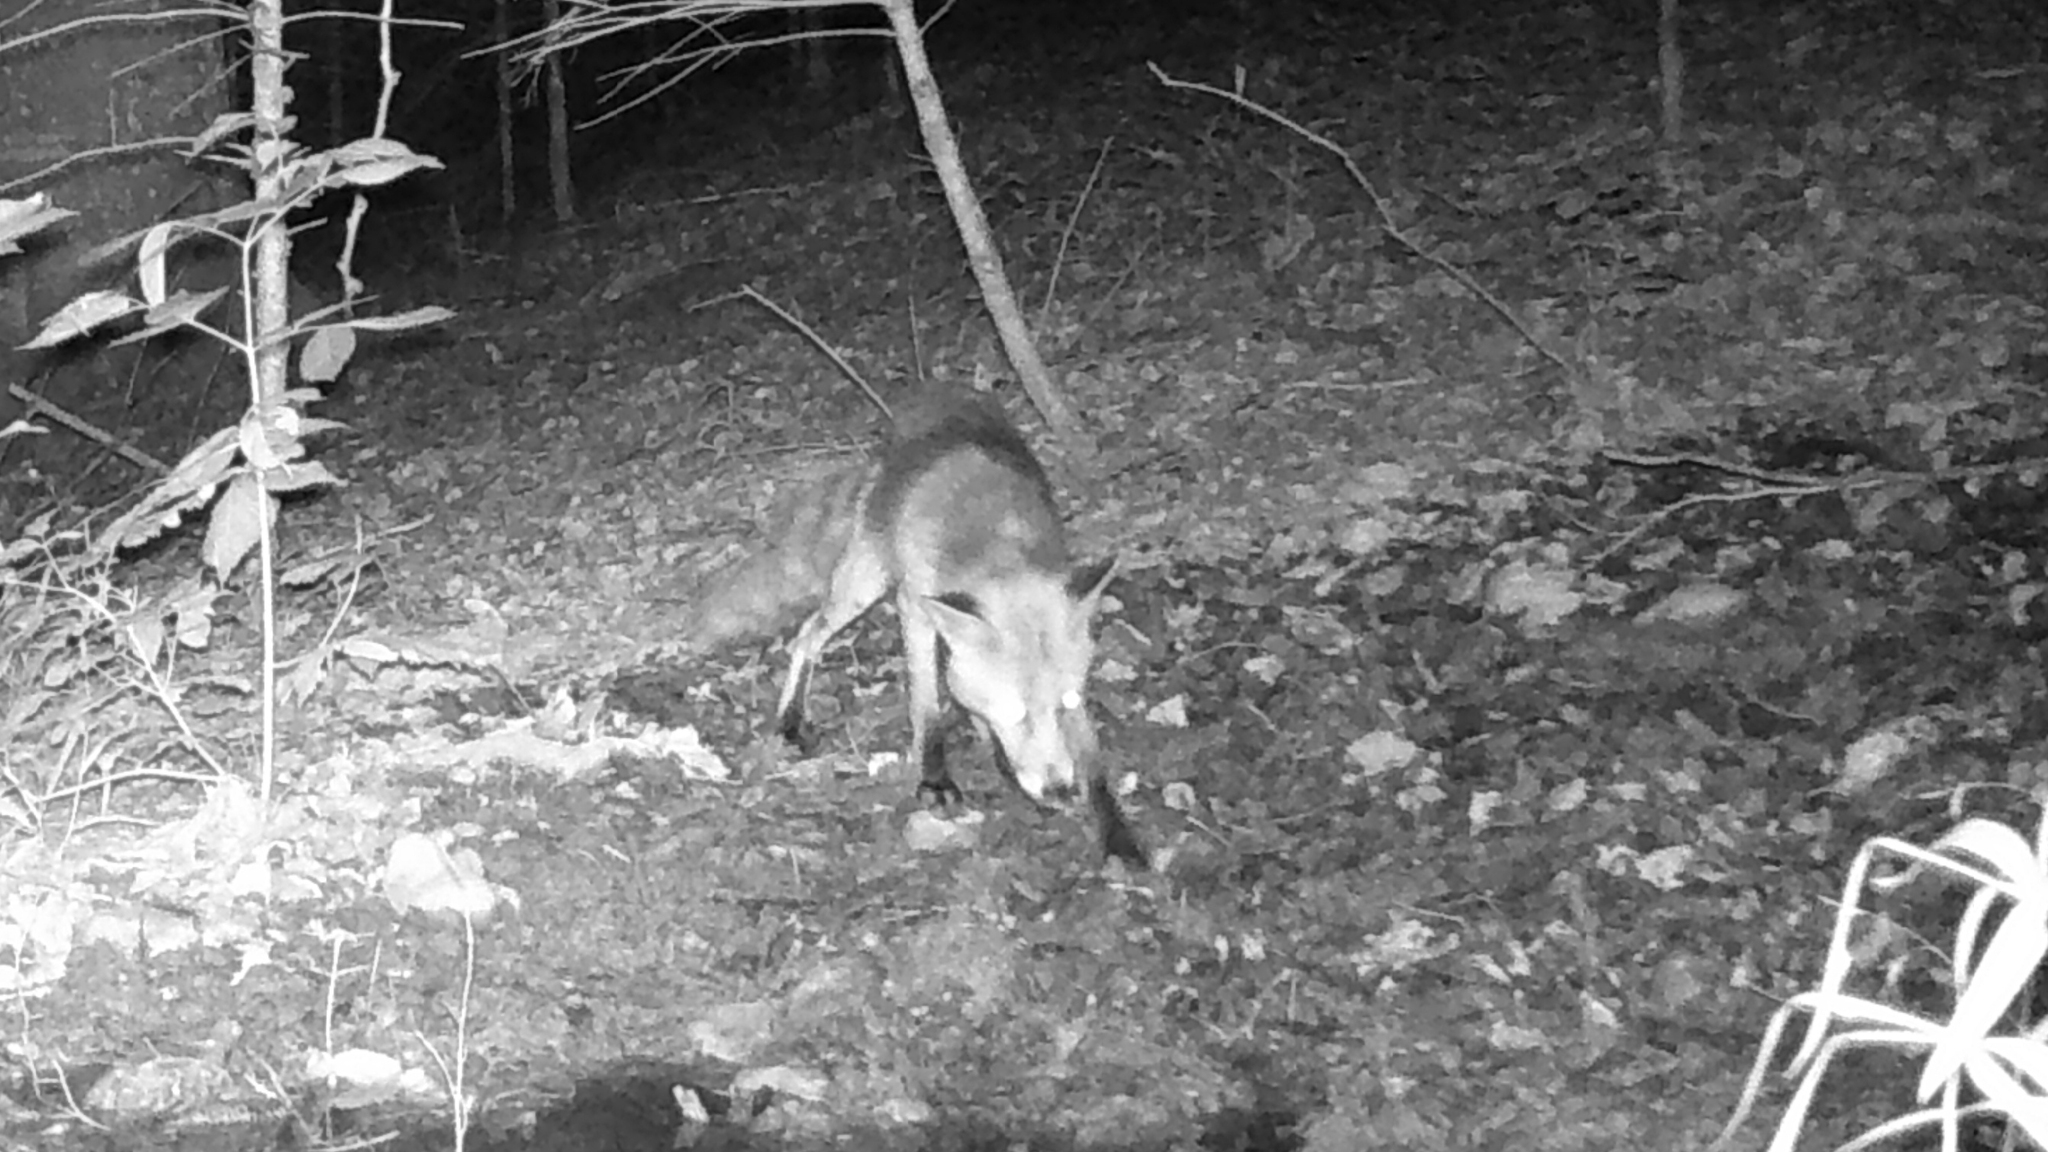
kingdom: Animalia
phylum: Chordata
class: Mammalia
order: Carnivora
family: Canidae
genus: Vulpes
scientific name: Vulpes vulpes
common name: Red fox
